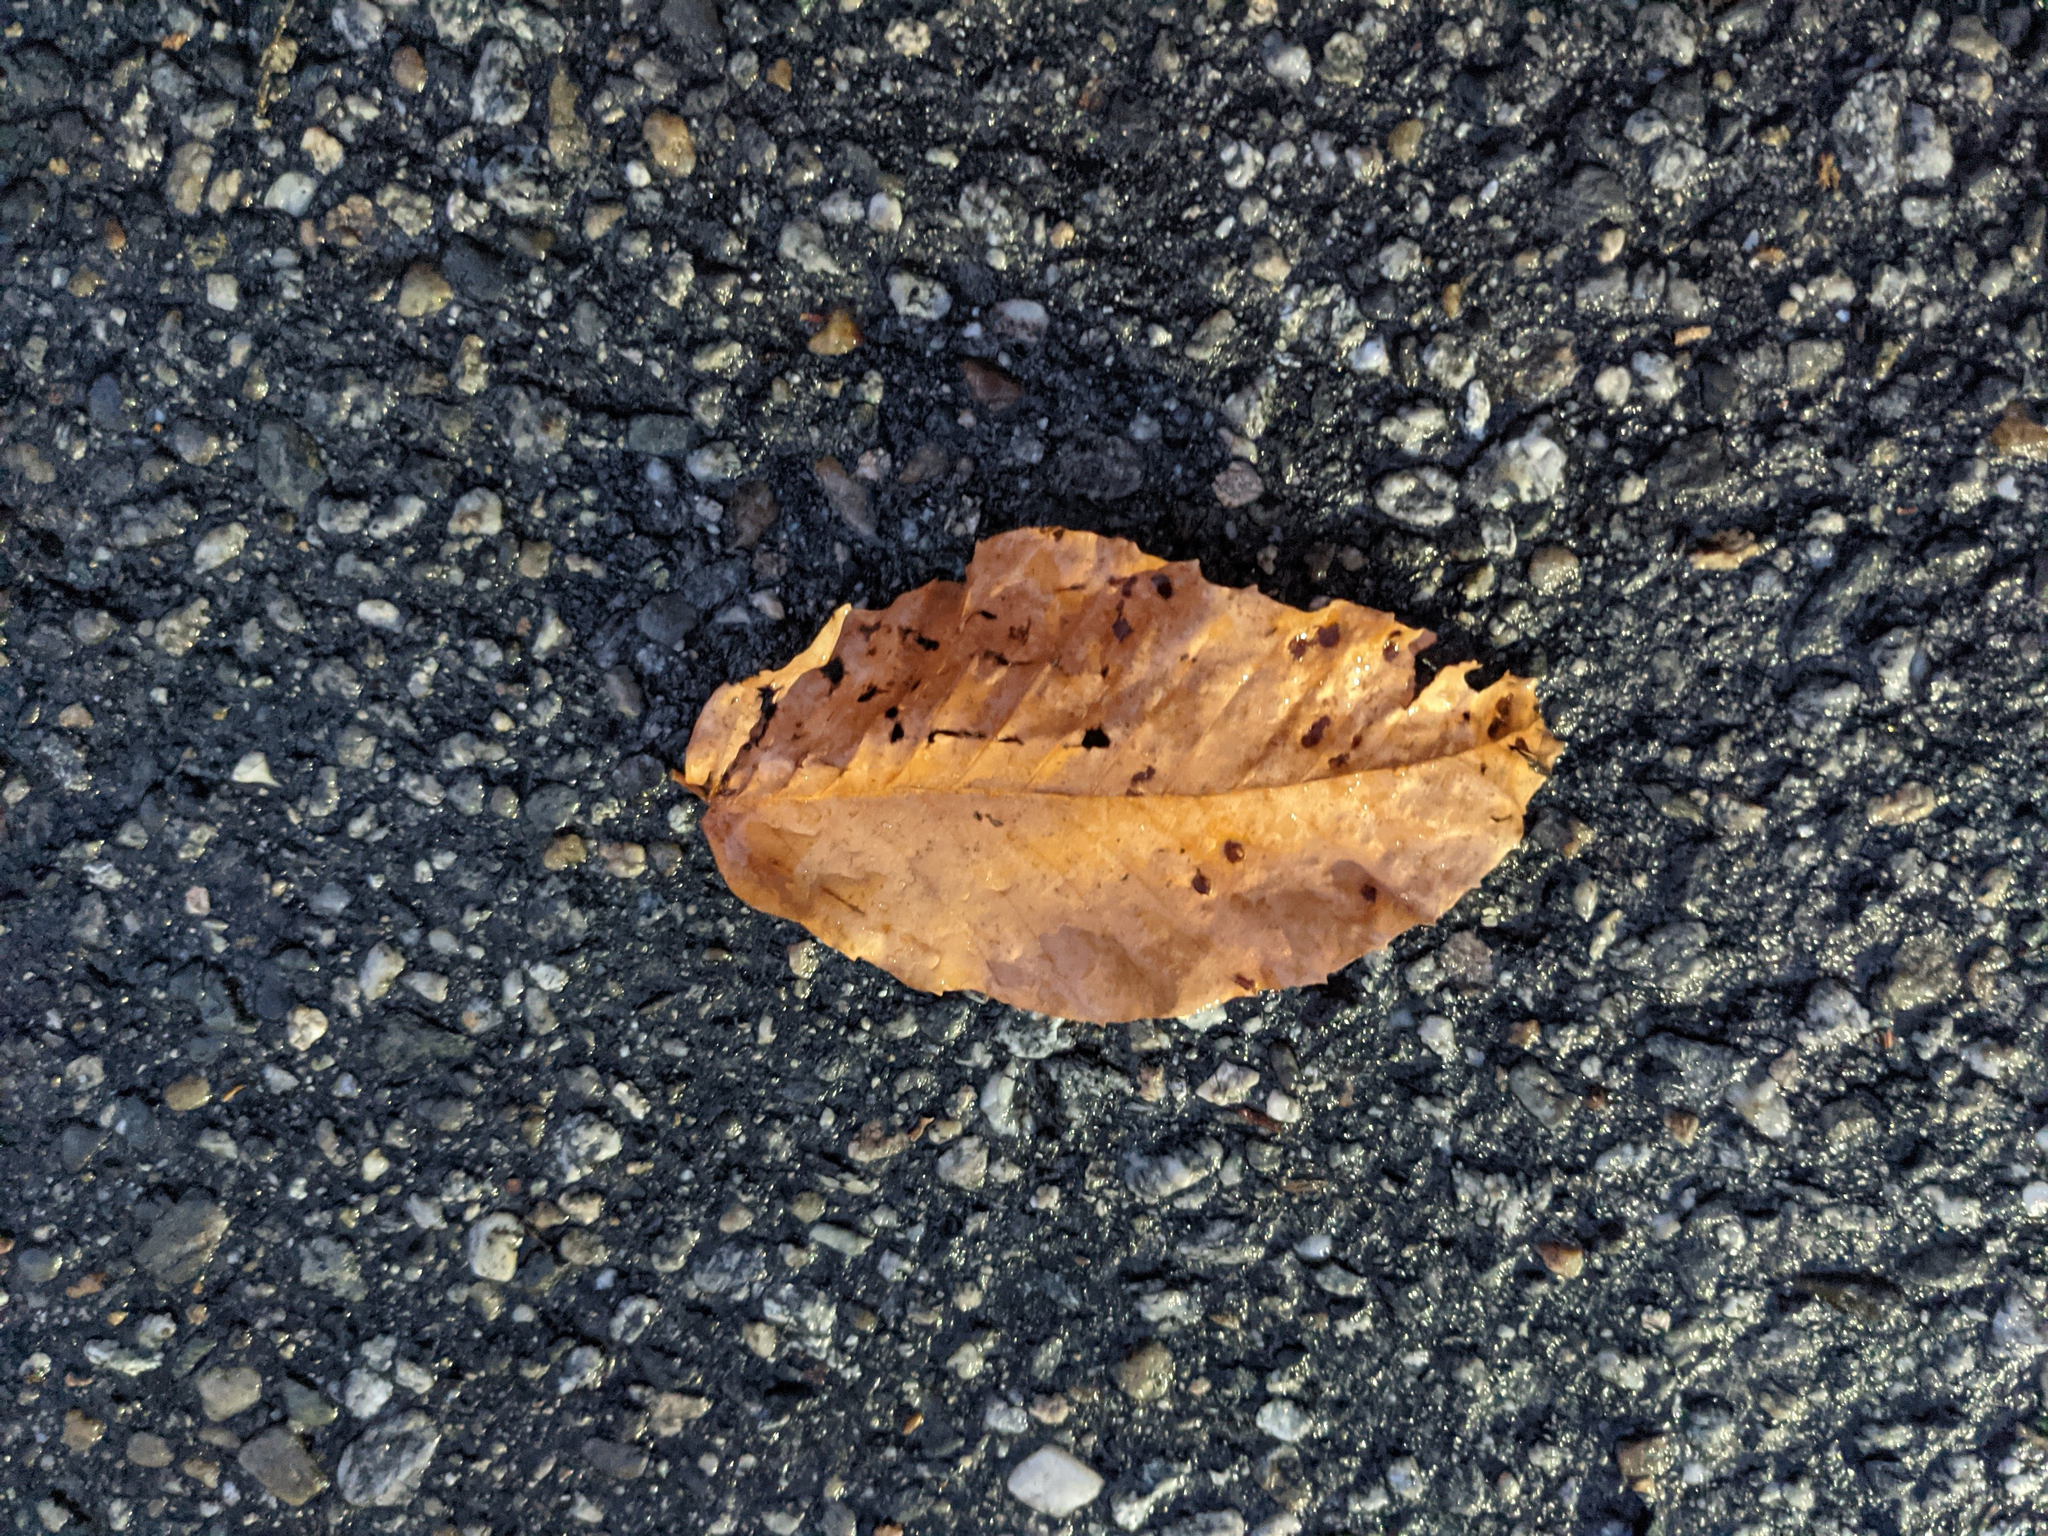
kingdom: Plantae
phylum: Tracheophyta
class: Magnoliopsida
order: Fagales
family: Fagaceae
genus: Fagus
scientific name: Fagus grandifolia
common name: American beech
